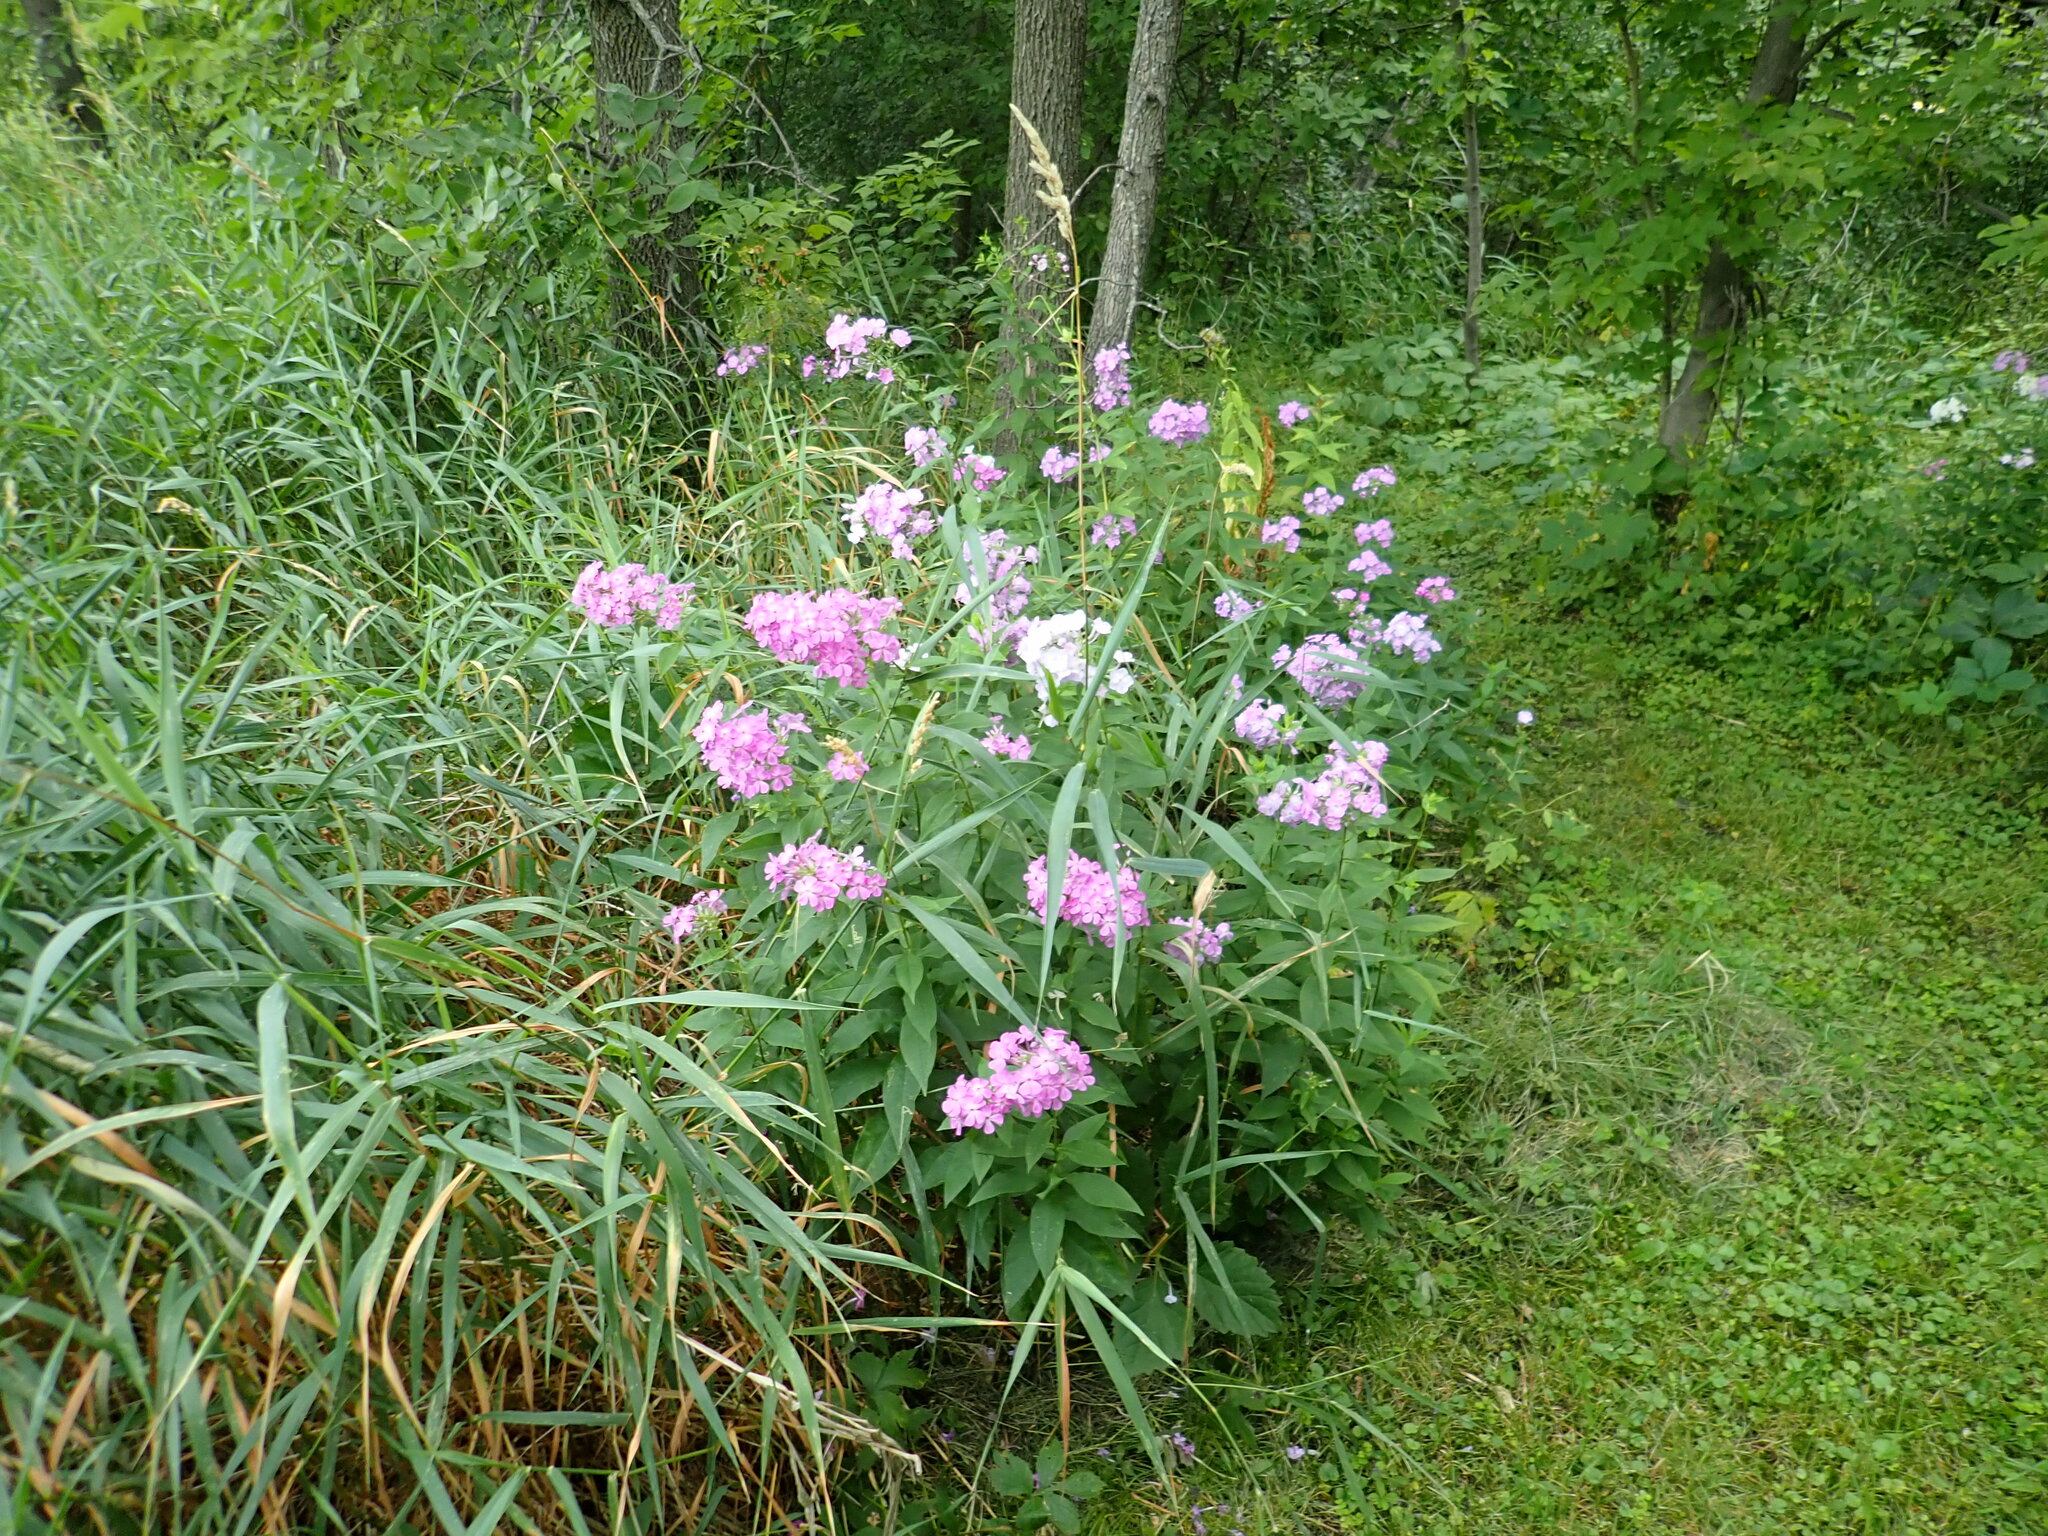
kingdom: Plantae
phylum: Tracheophyta
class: Magnoliopsida
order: Ericales
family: Polemoniaceae
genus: Phlox
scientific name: Phlox paniculata
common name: Fall phlox
